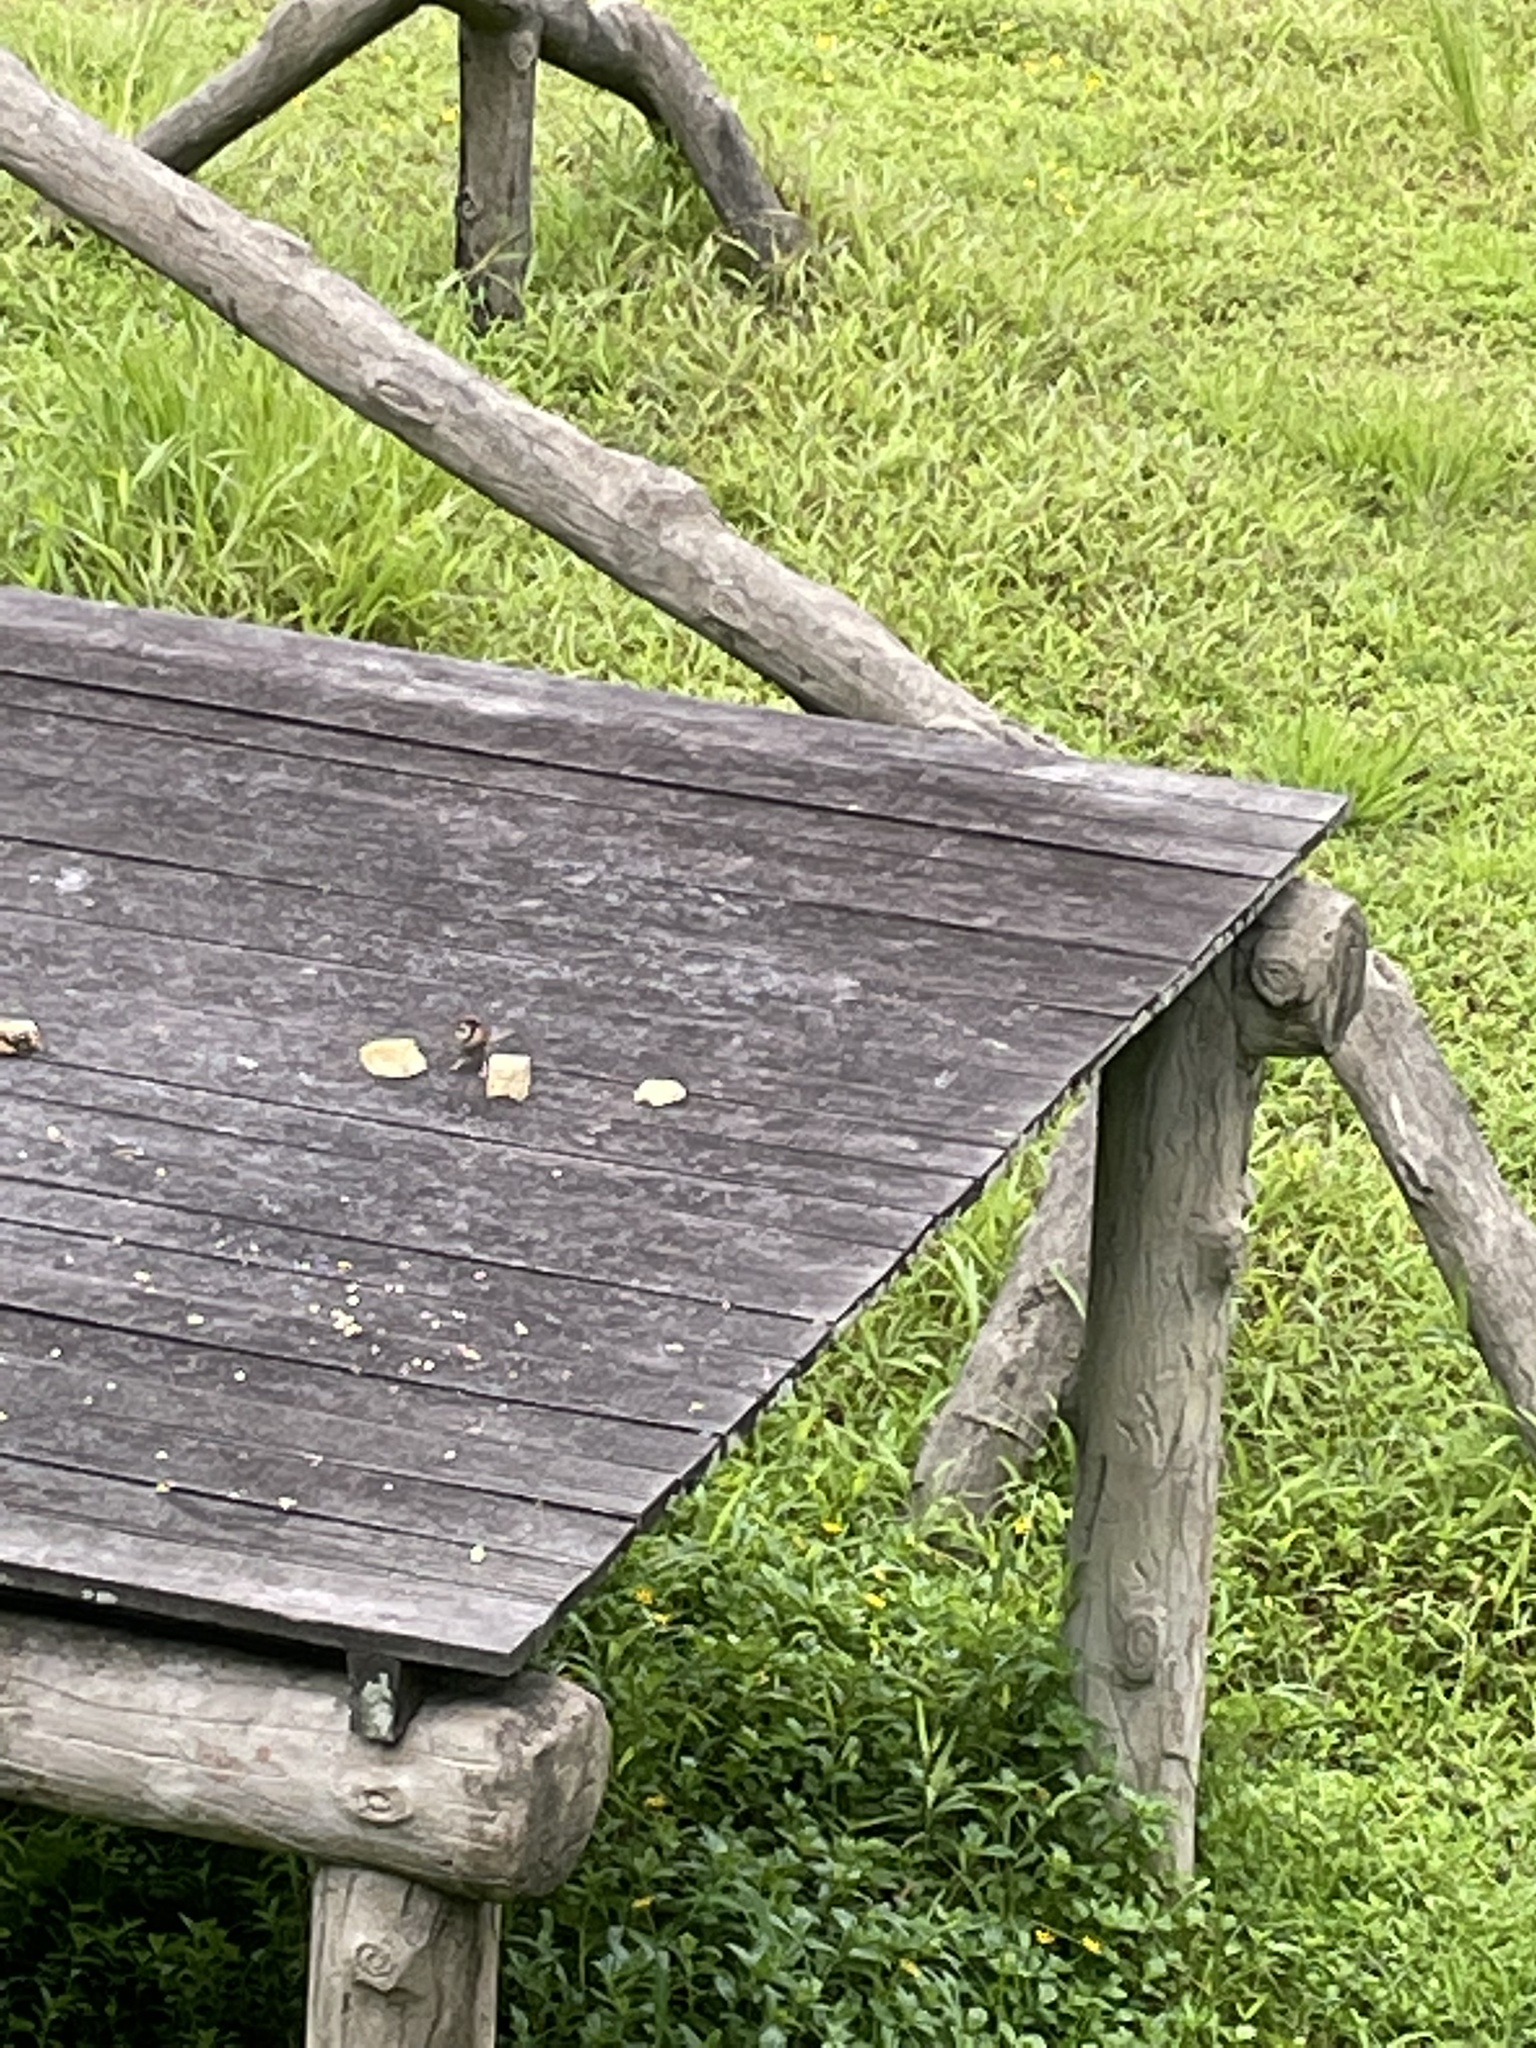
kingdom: Animalia
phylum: Chordata
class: Aves
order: Passeriformes
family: Passeridae
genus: Passer
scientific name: Passer montanus
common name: Eurasian tree sparrow
